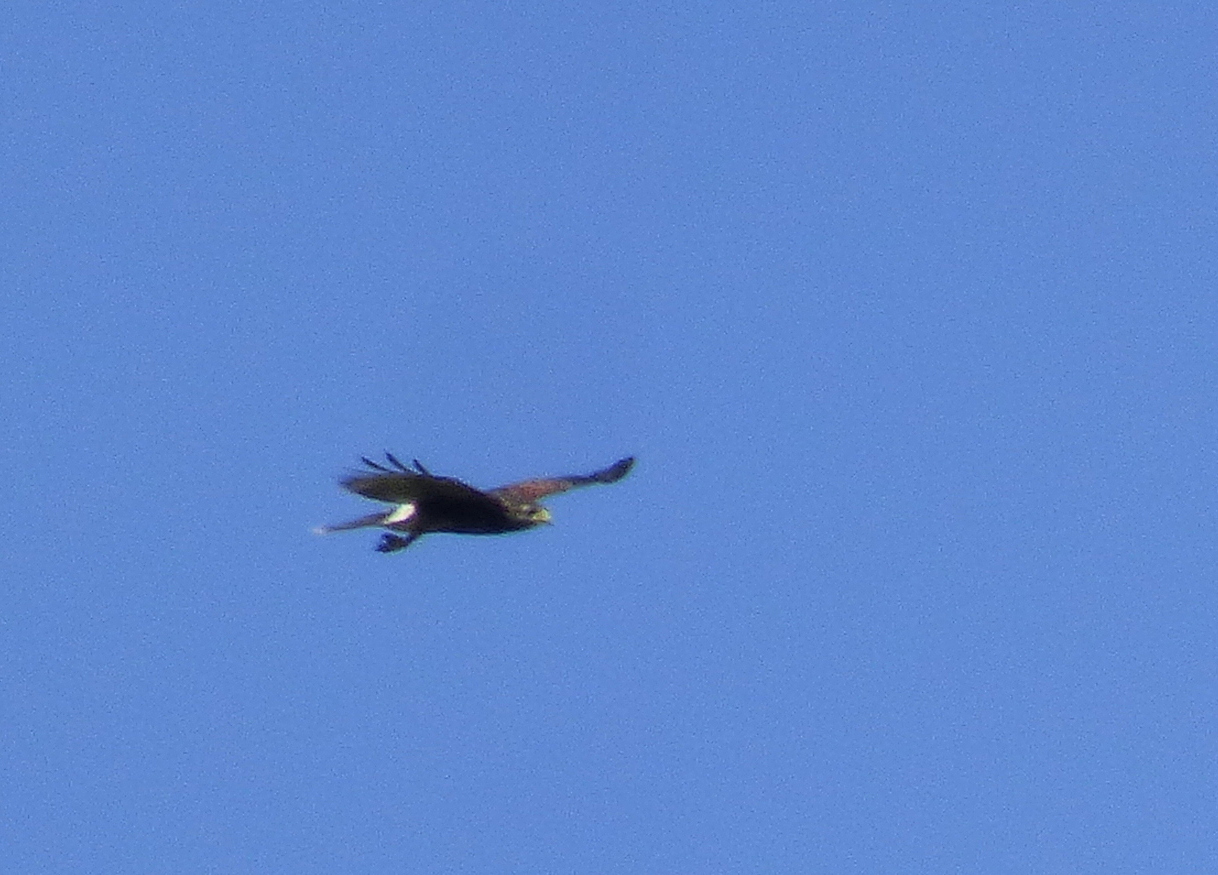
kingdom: Animalia
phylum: Chordata
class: Aves
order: Accipitriformes
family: Accipitridae
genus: Parabuteo
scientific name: Parabuteo unicinctus
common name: Harris's hawk
